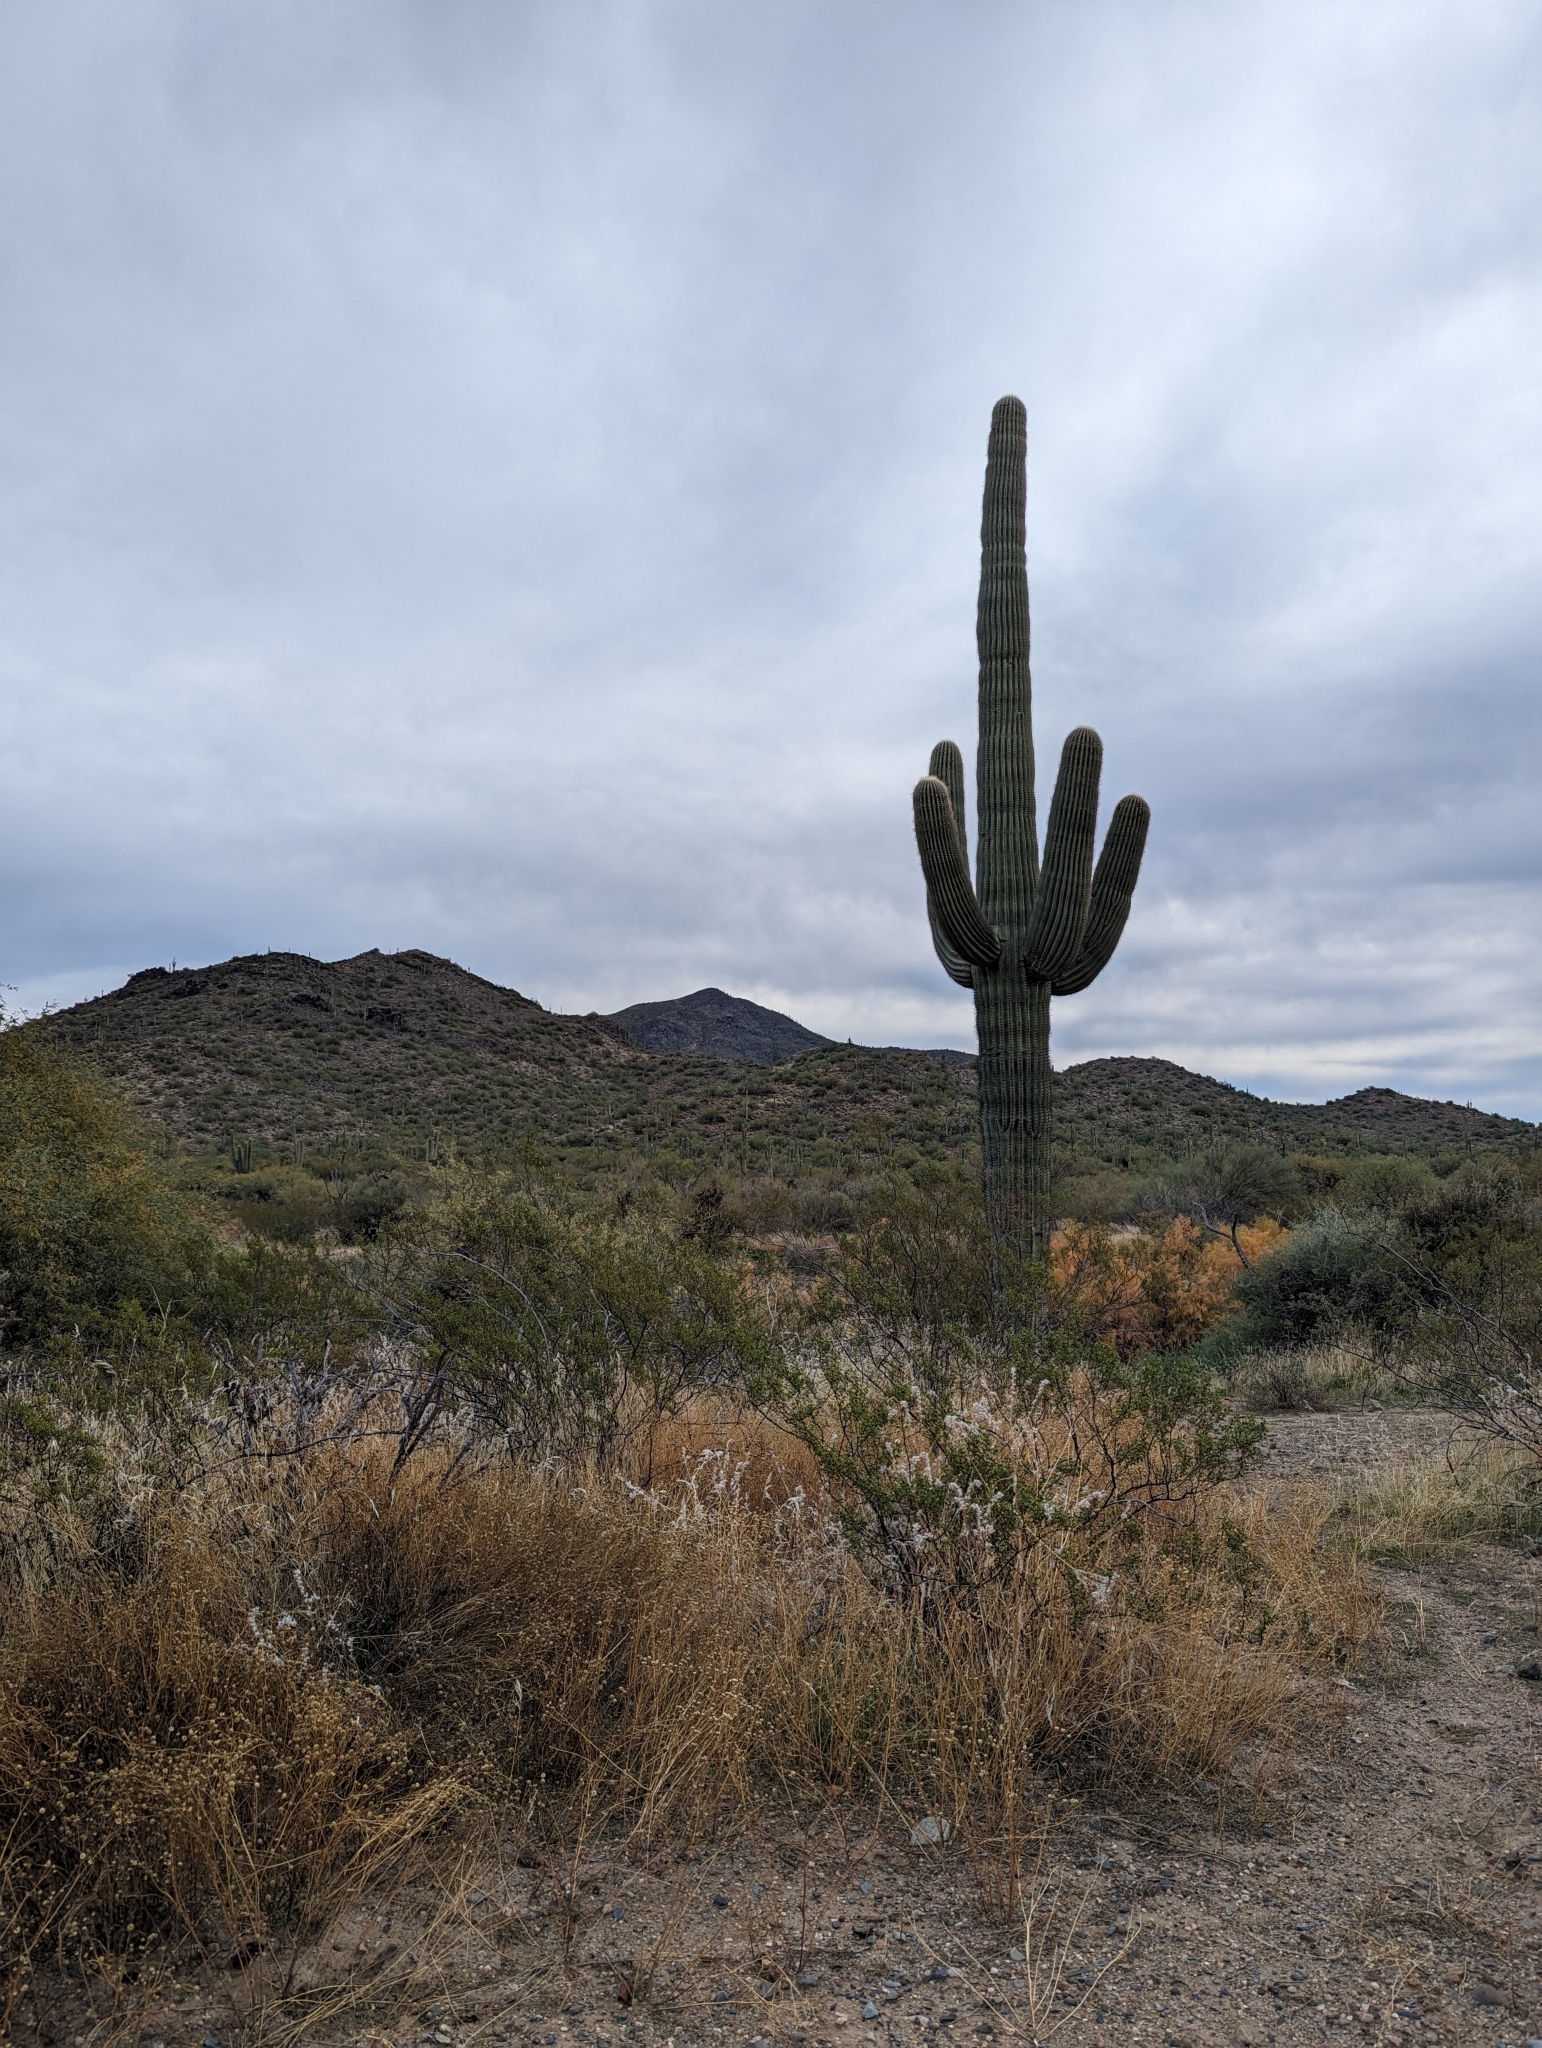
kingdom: Plantae
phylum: Tracheophyta
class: Magnoliopsida
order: Caryophyllales
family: Cactaceae
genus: Carnegiea
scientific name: Carnegiea gigantea
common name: Saguaro
